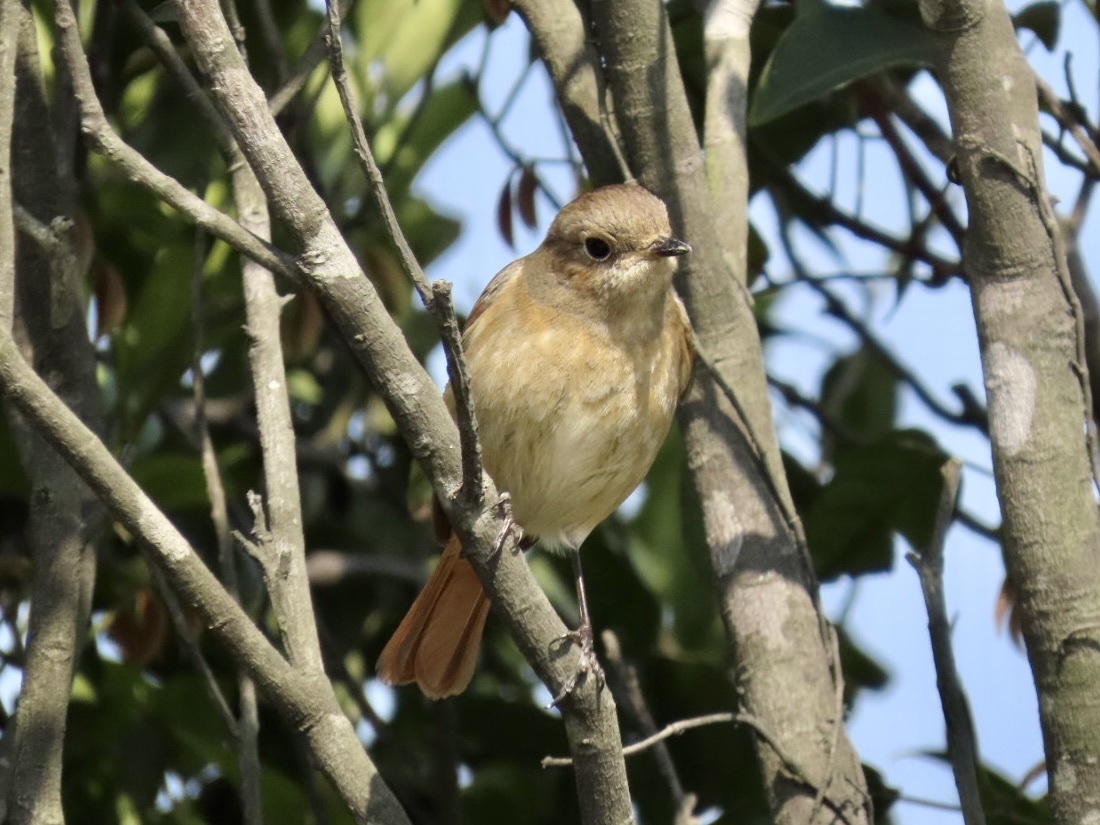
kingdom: Animalia
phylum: Chordata
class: Aves
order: Passeriformes
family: Muscicapidae
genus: Phoenicurus
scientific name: Phoenicurus auroreus
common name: Daurian redstart
